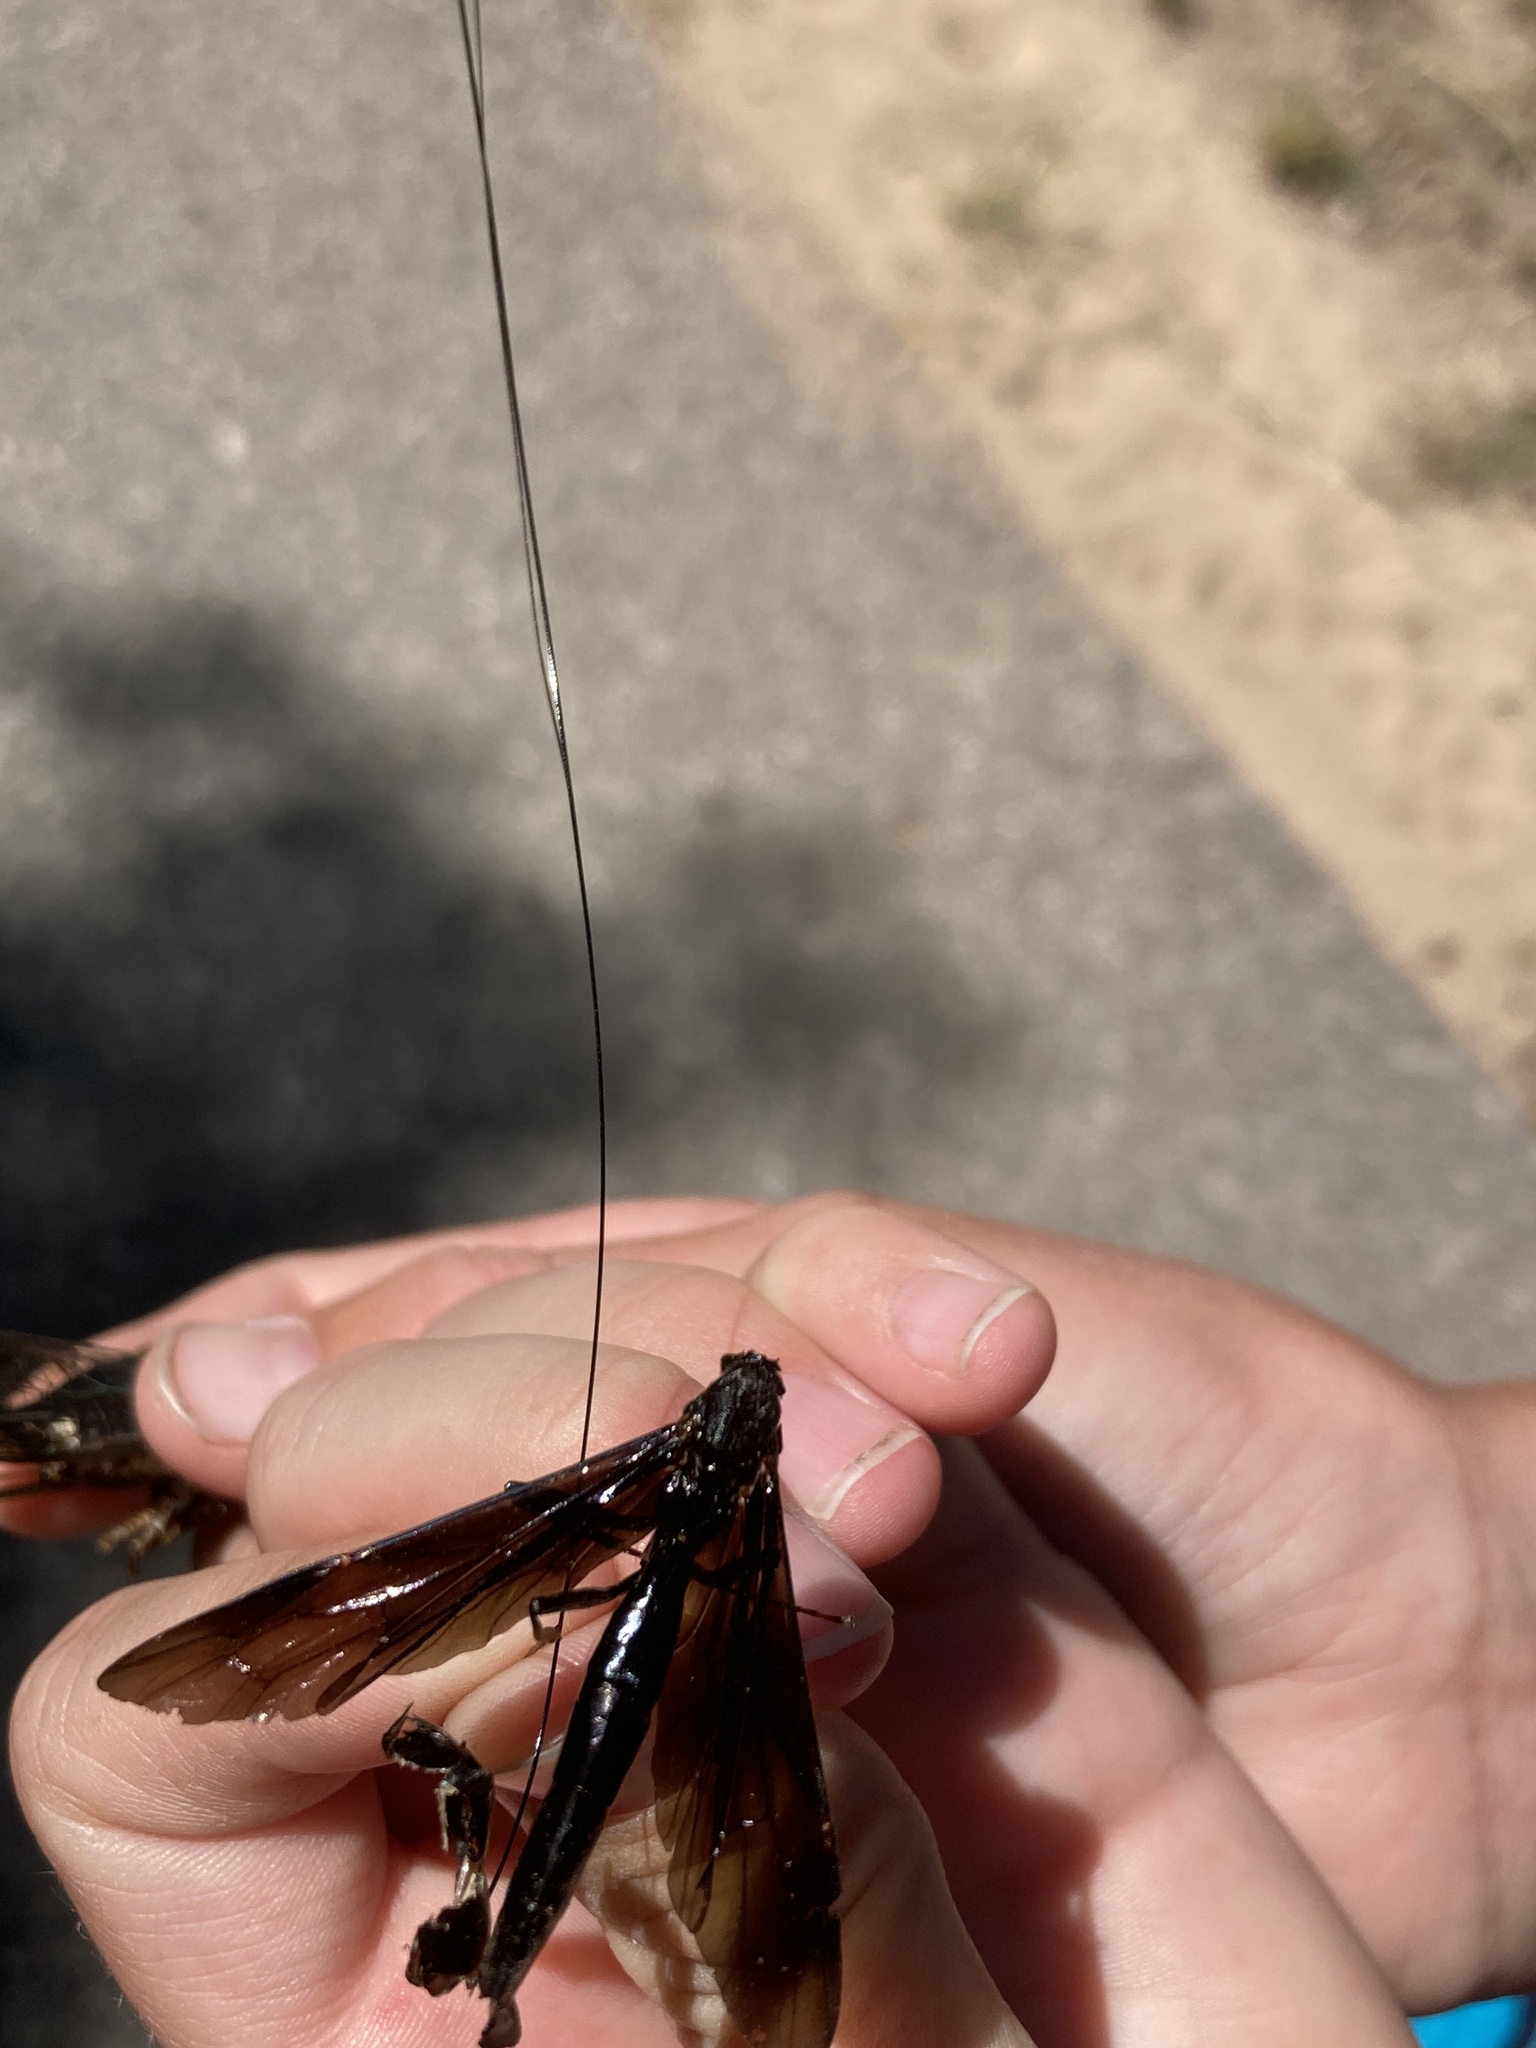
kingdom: Animalia
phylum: Arthropoda
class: Insecta
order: Hymenoptera
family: Ichneumonidae
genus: Megarhyssa
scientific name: Megarhyssa atrata
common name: Black giant ichneumonid wasp
